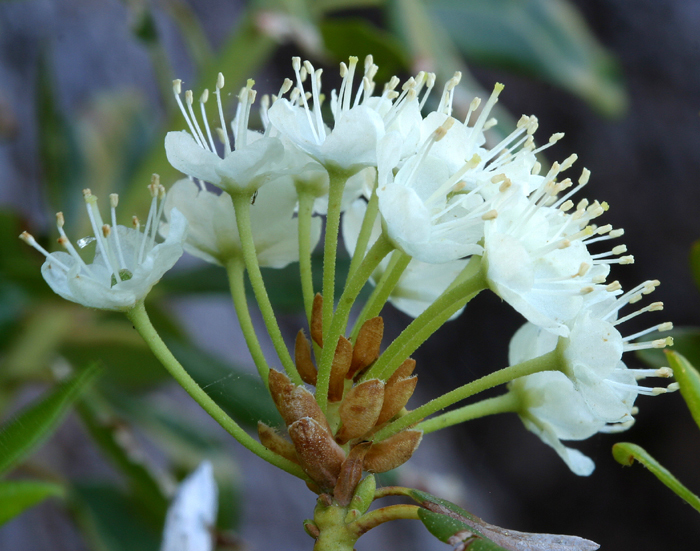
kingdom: Plantae
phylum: Tracheophyta
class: Magnoliopsida
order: Ericales
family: Ericaceae
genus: Rhododendron
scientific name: Rhododendron columbianum
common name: Western labrador tea
